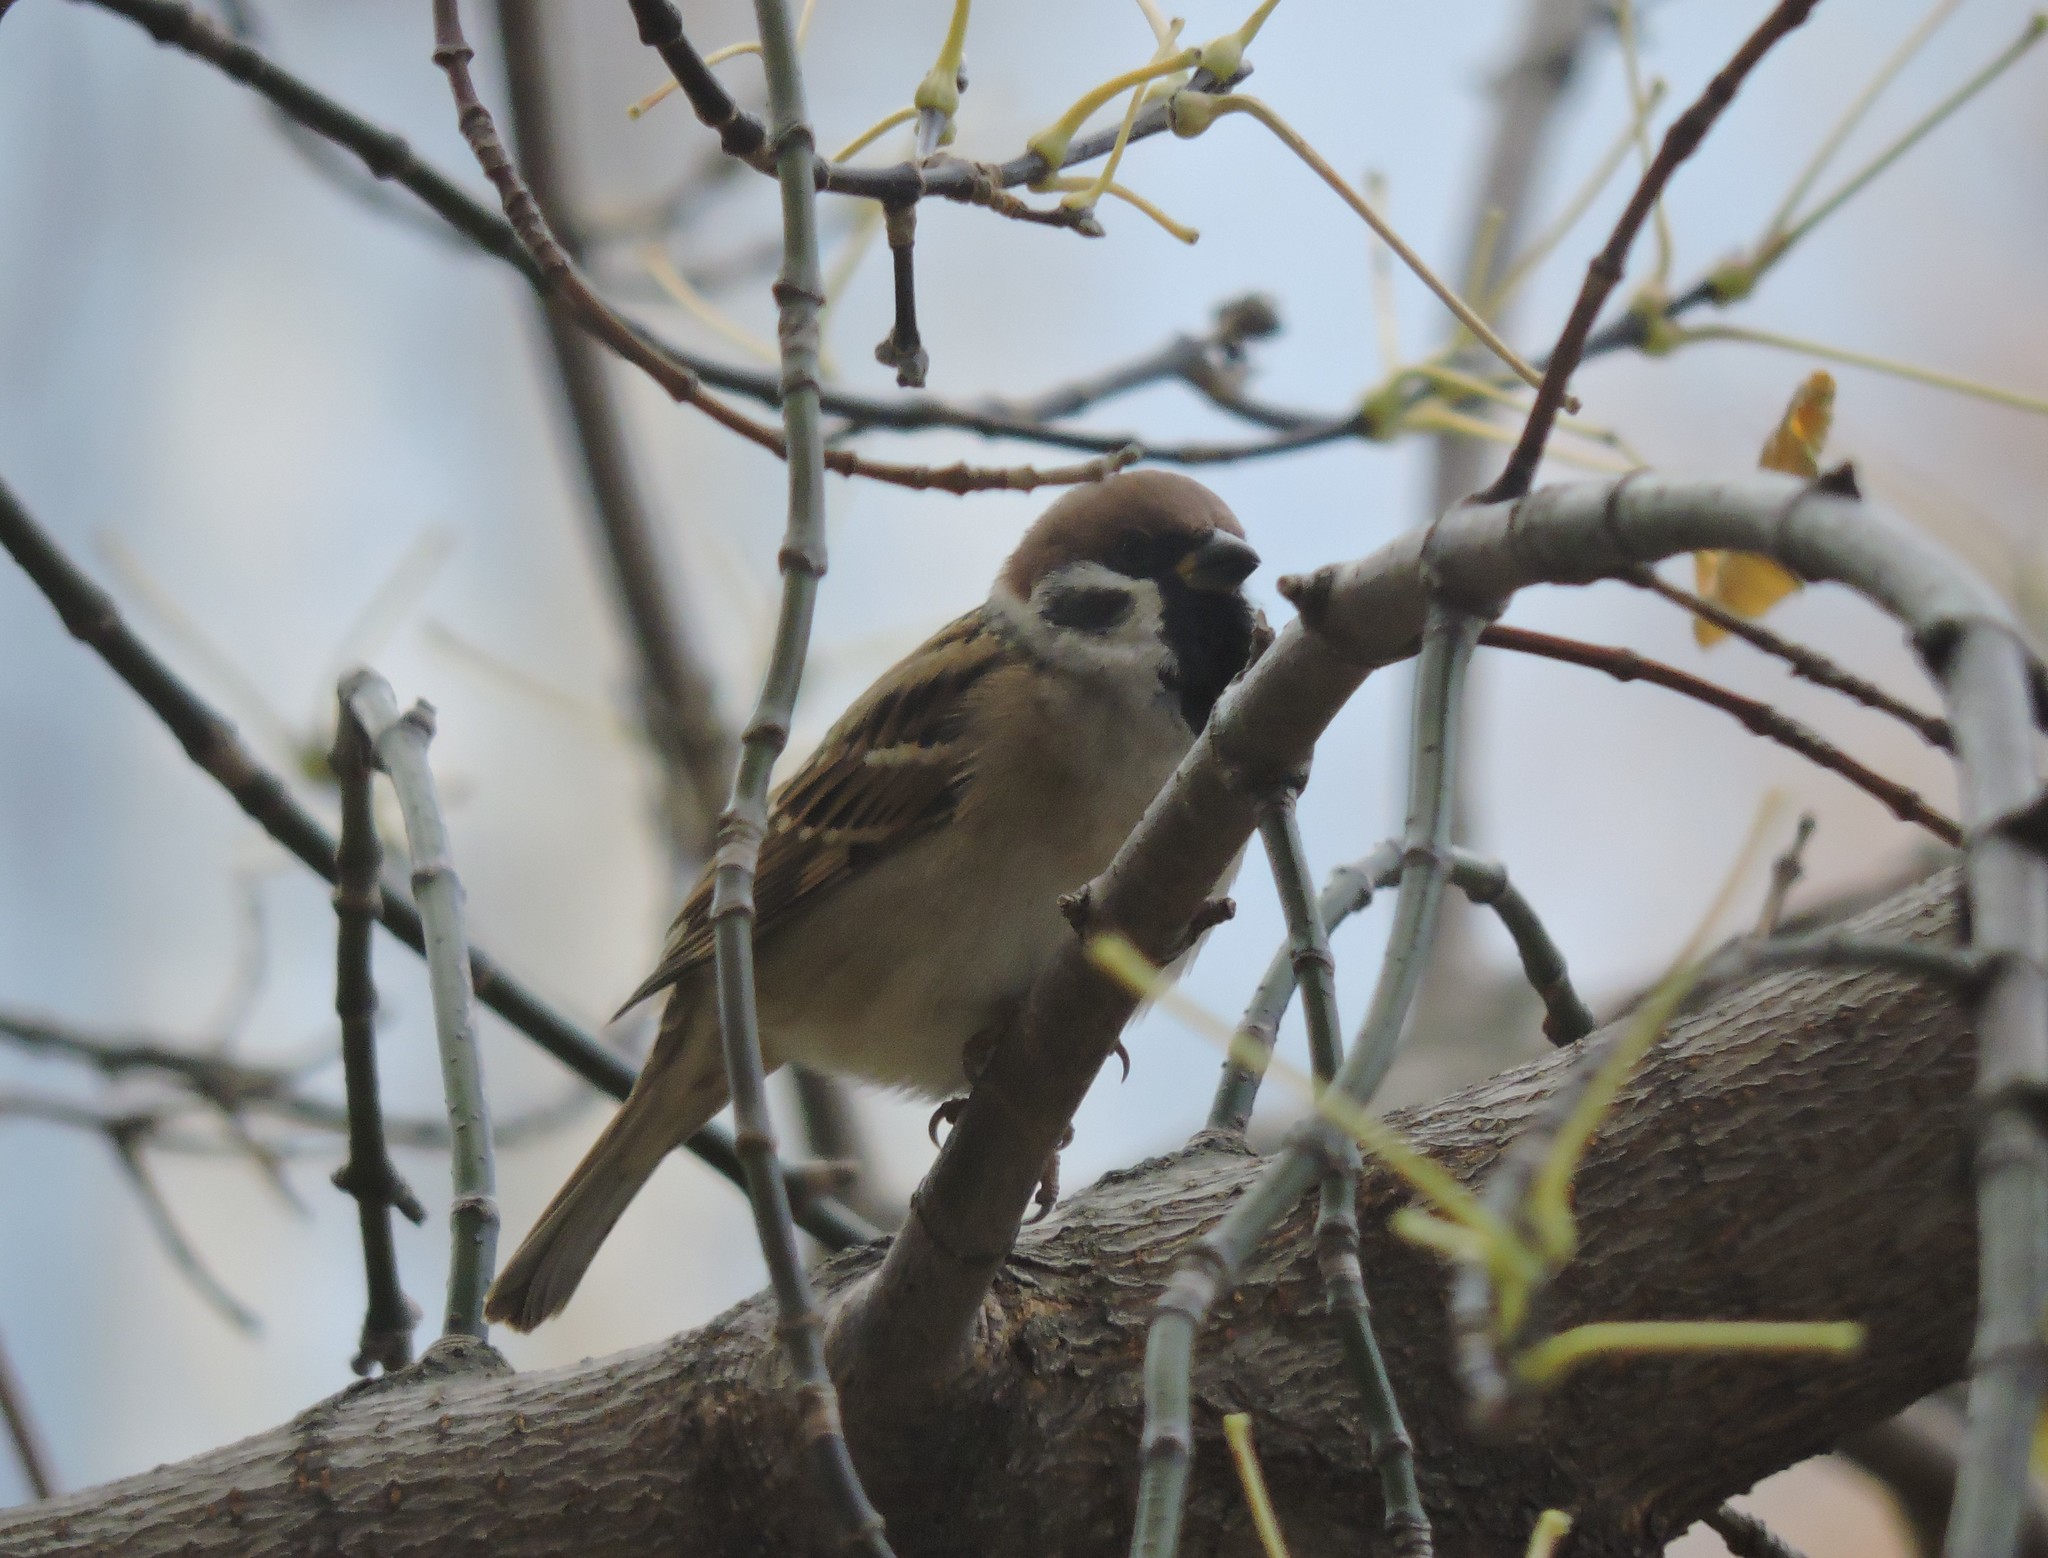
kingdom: Animalia
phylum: Chordata
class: Aves
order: Passeriformes
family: Passeridae
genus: Passer
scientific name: Passer montanus
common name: Eurasian tree sparrow
